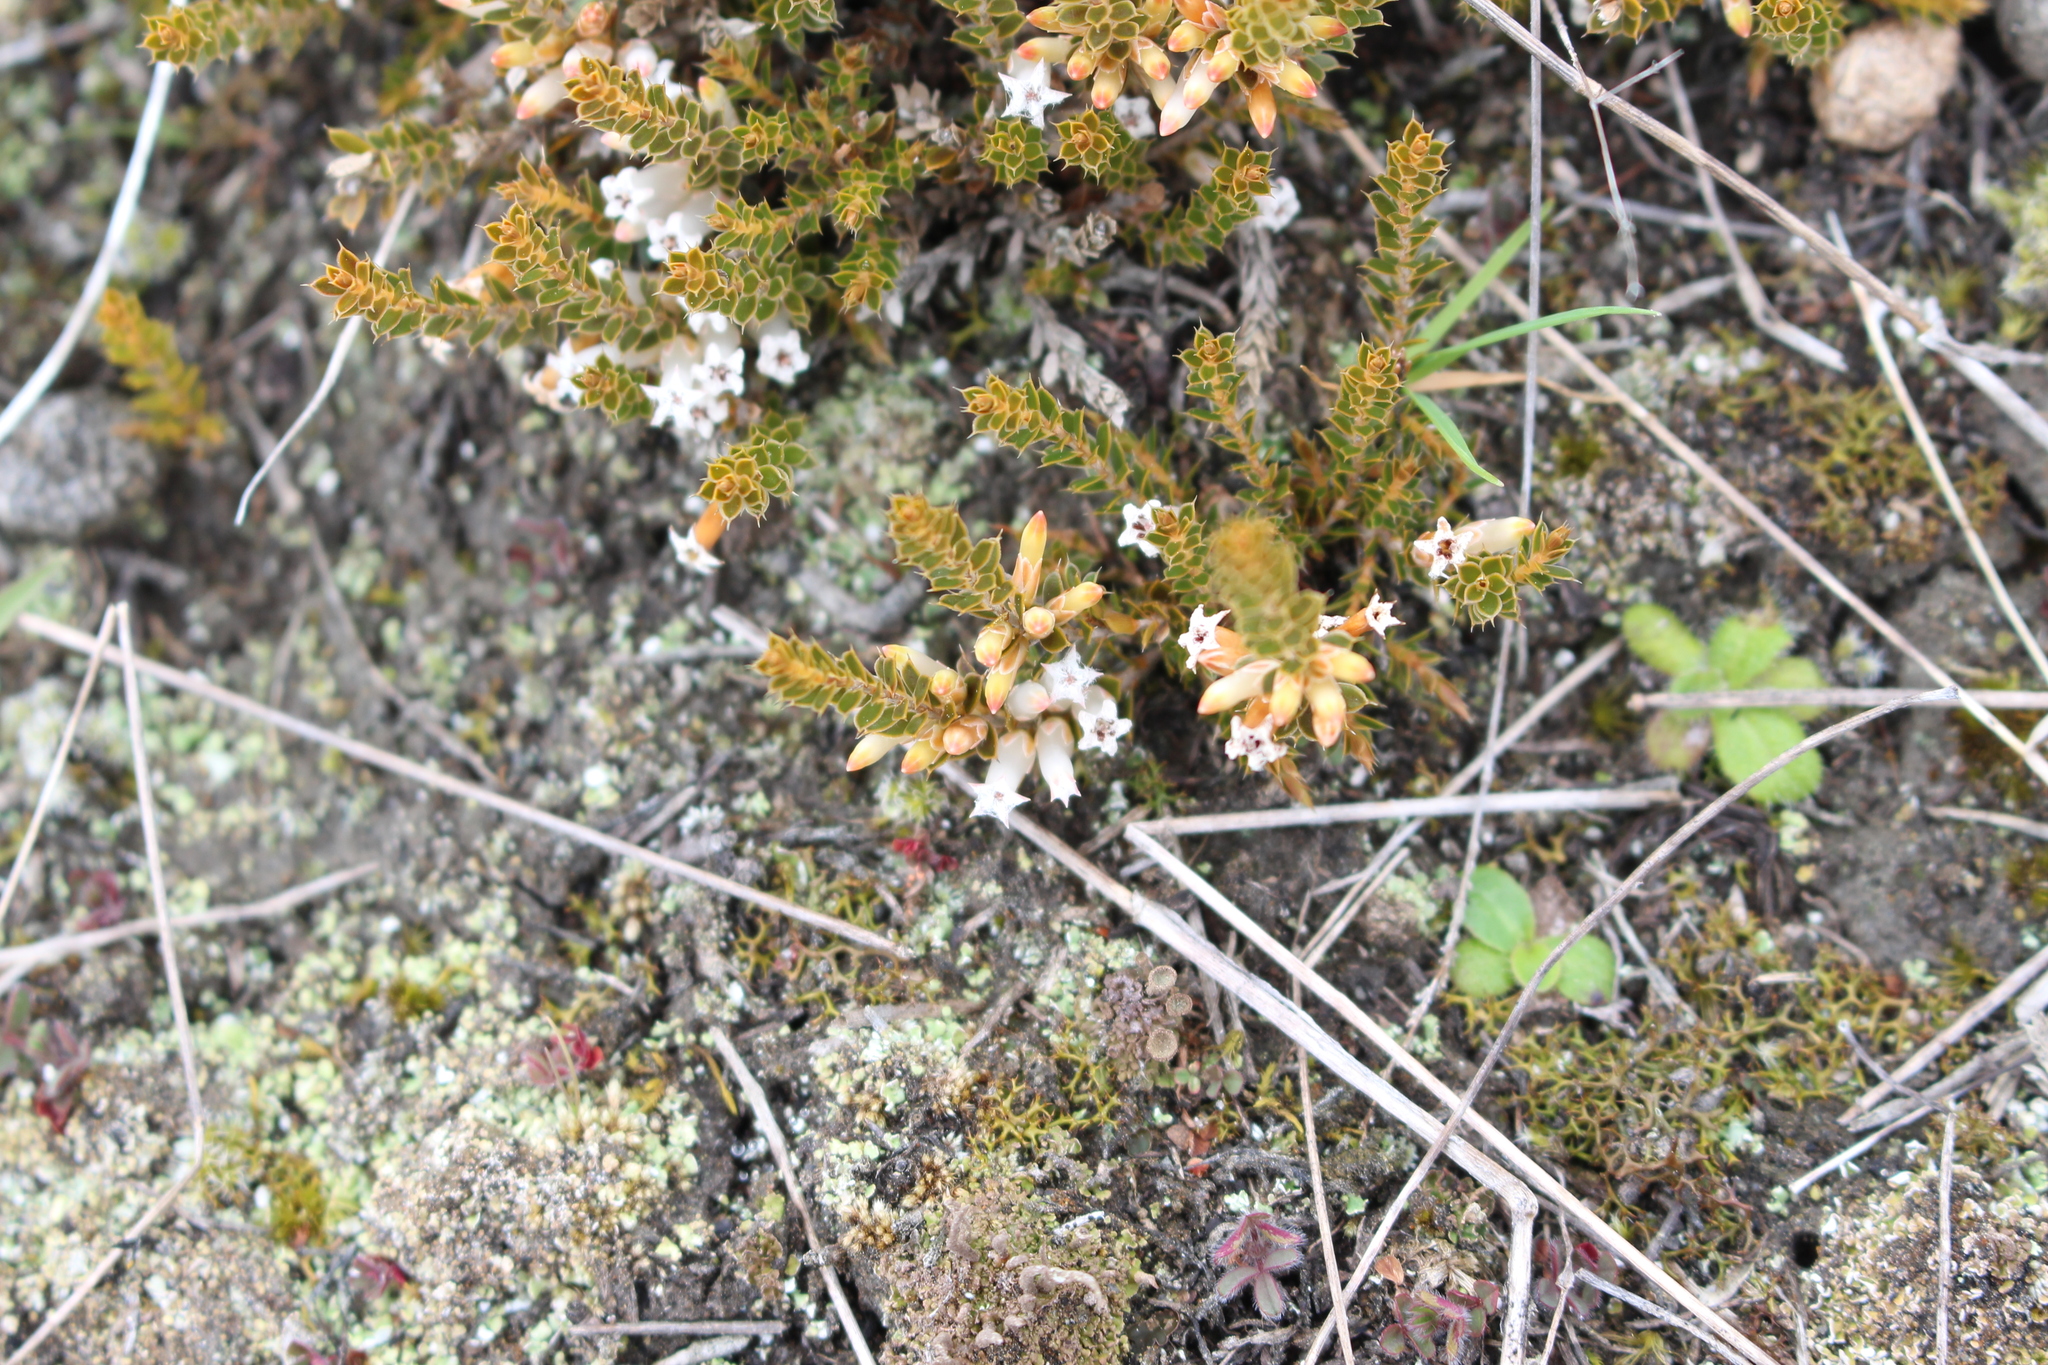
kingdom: Plantae
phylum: Tracheophyta
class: Magnoliopsida
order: Ericales
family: Ericaceae
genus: Styphelia
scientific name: Styphelia nesophila
